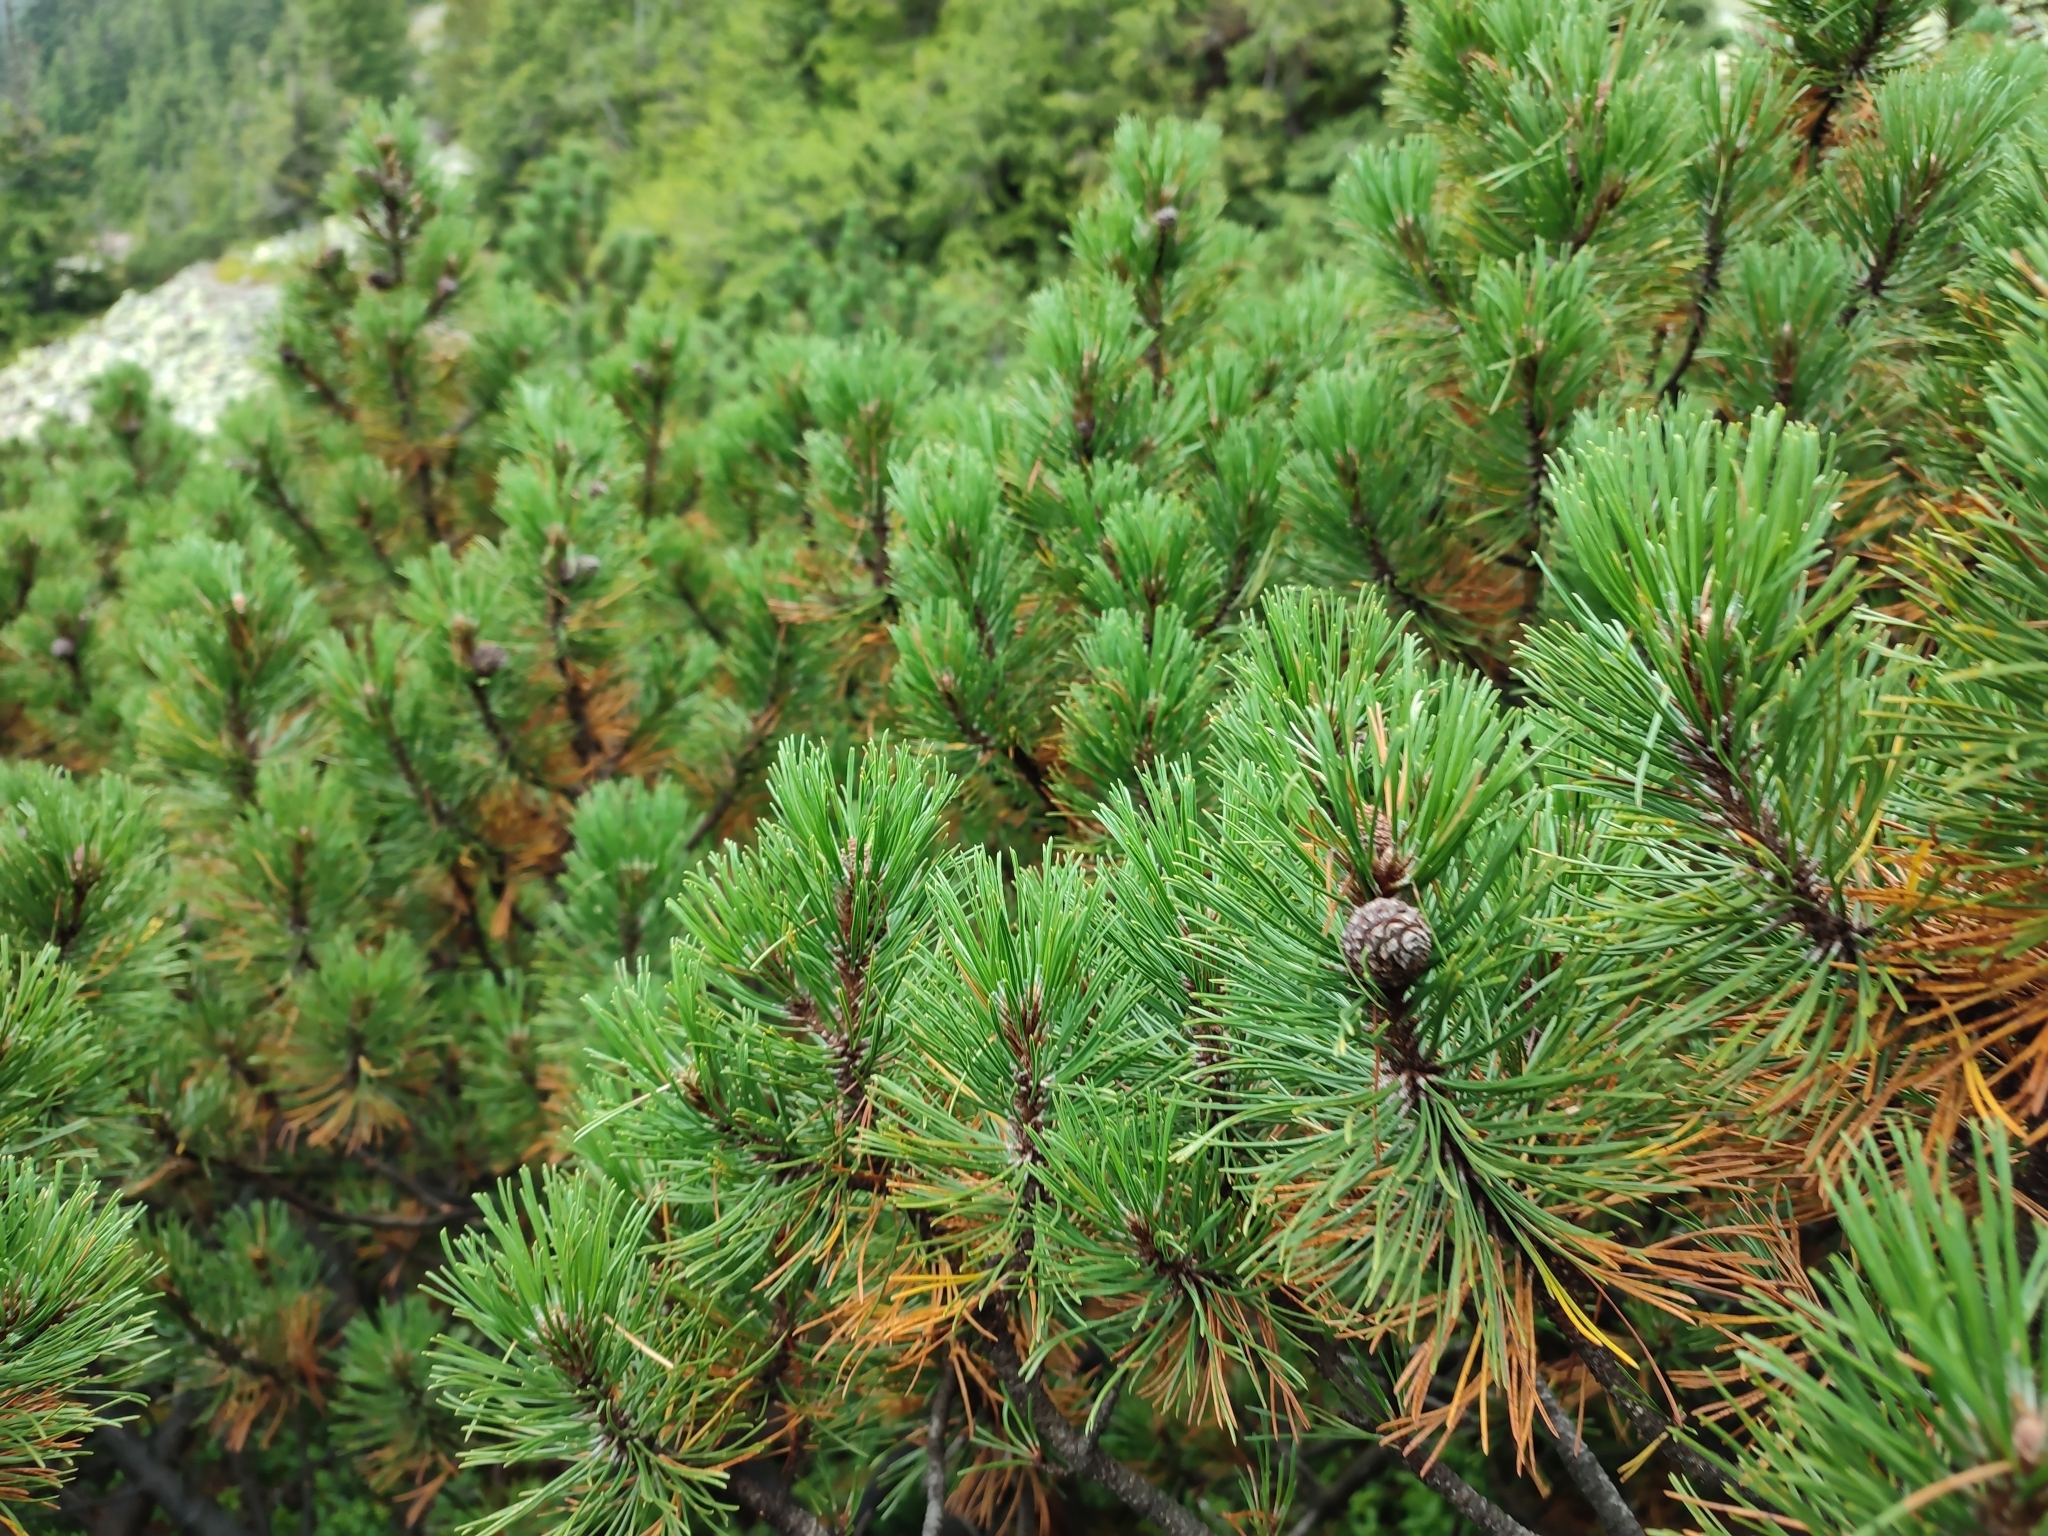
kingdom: Plantae
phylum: Tracheophyta
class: Pinopsida
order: Pinales
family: Pinaceae
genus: Pinus
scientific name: Pinus mugo
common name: Mugo pine
